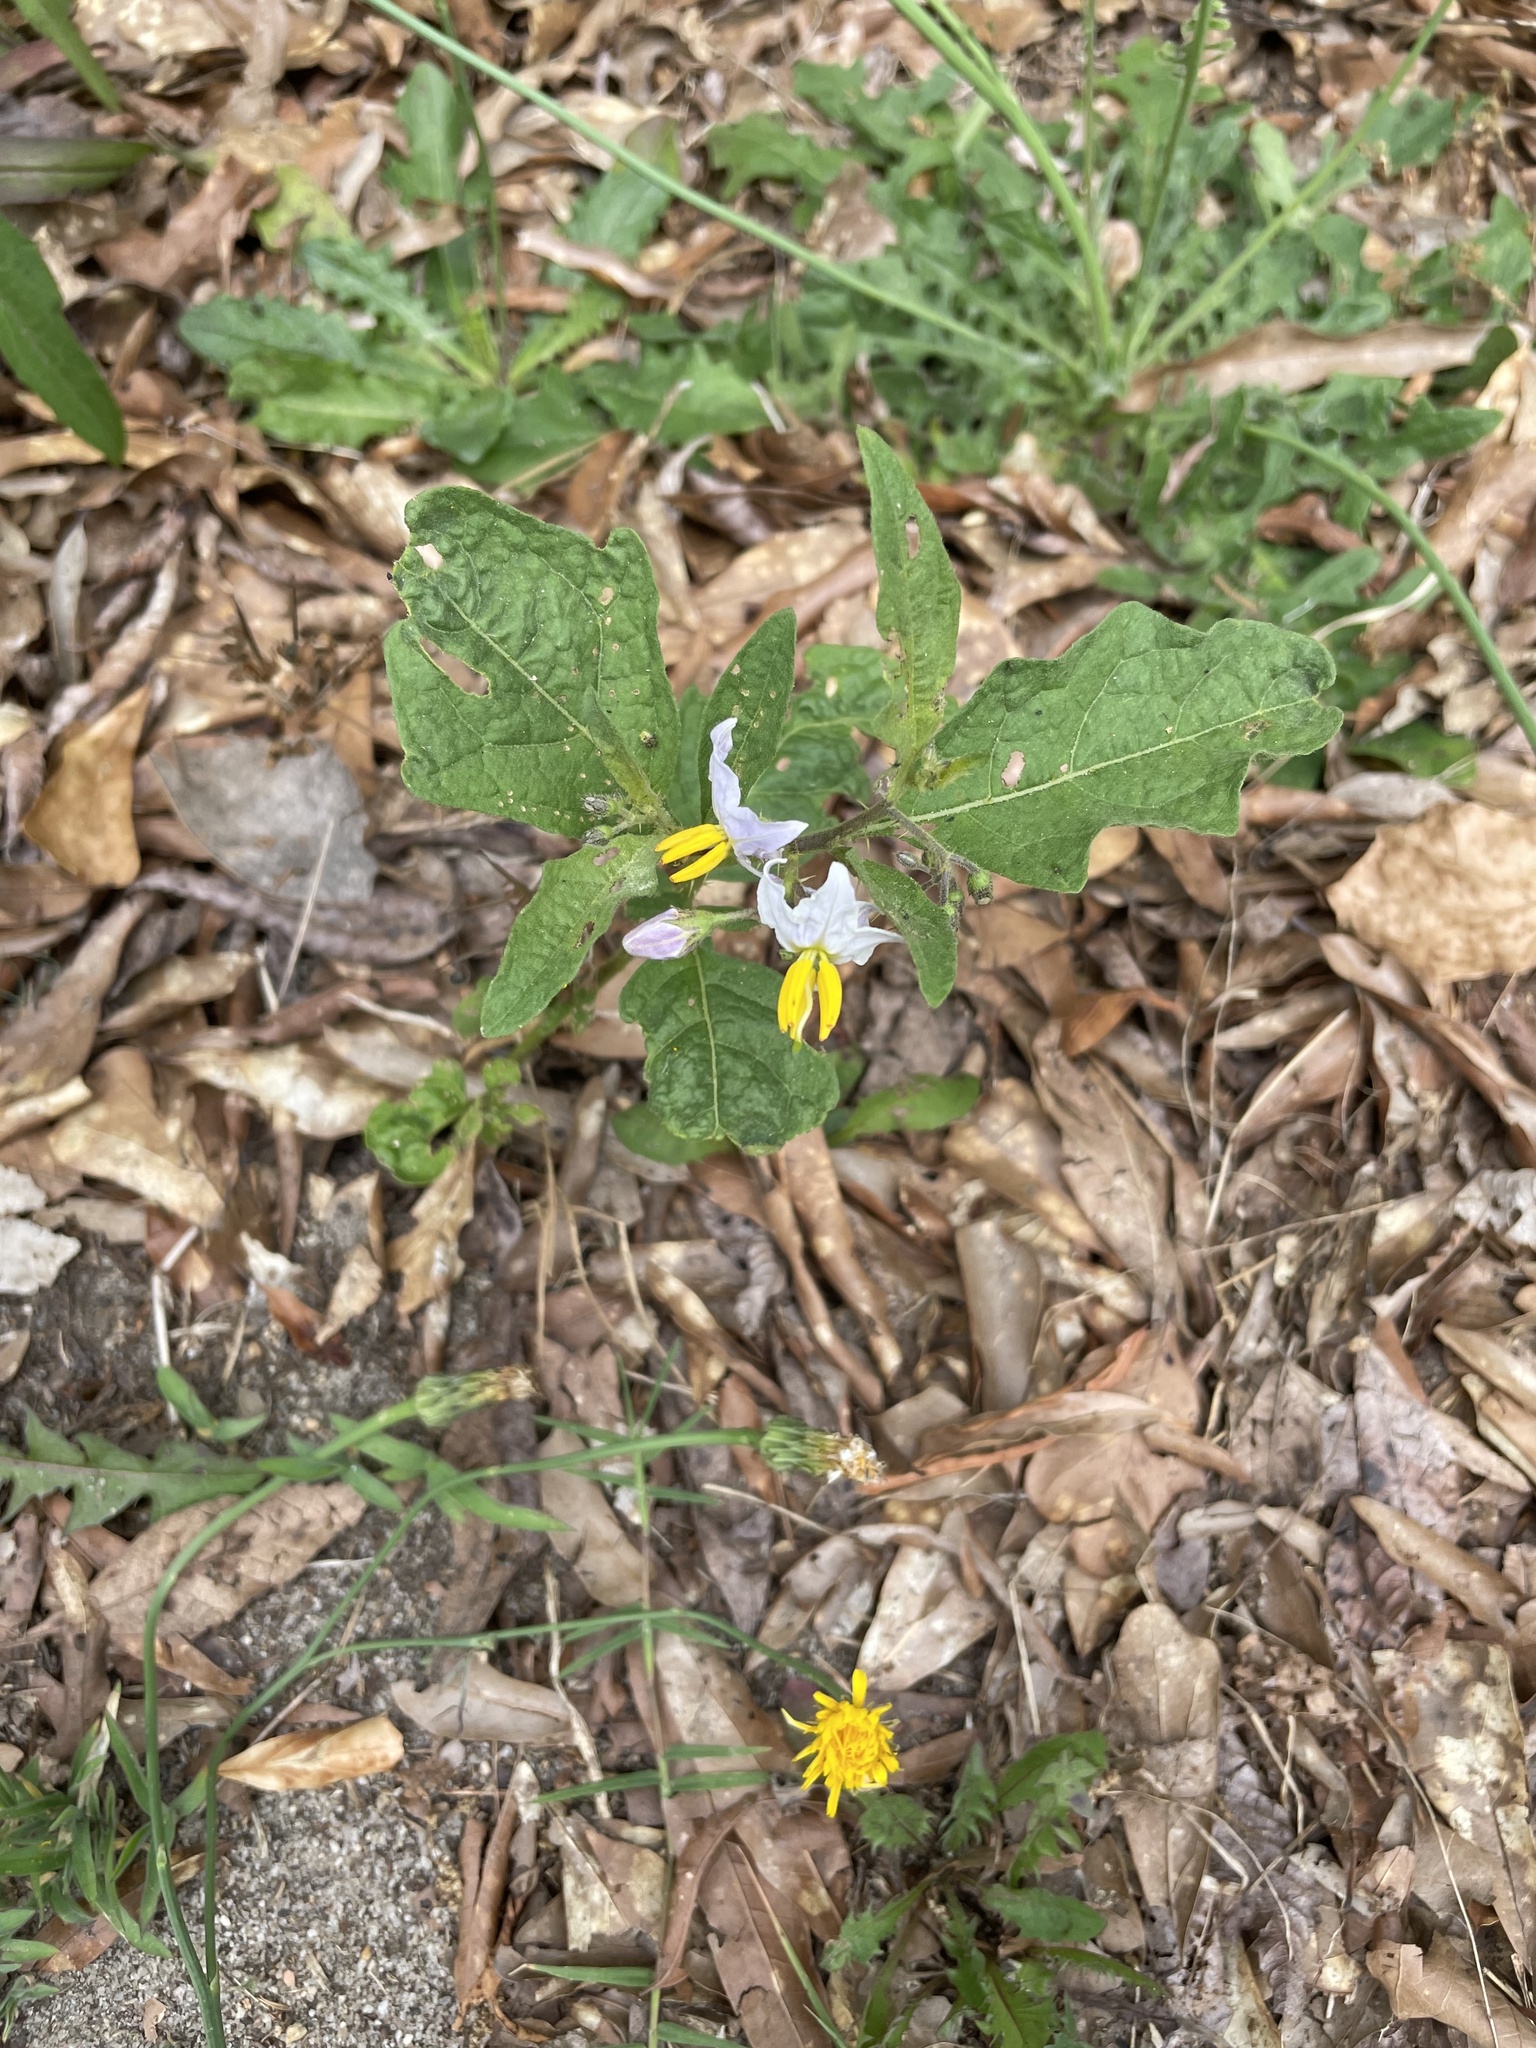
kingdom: Plantae
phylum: Tracheophyta
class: Magnoliopsida
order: Solanales
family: Solanaceae
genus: Solanum
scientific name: Solanum carolinense
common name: Horse-nettle
